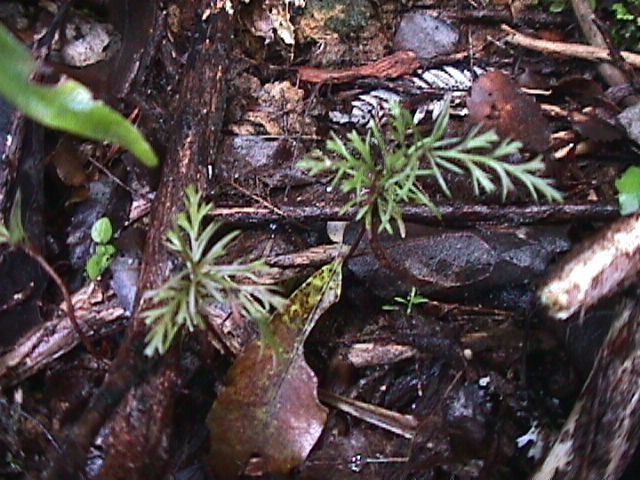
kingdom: Plantae
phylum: Tracheophyta
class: Pinopsida
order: Pinales
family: Phyllocladaceae
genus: Phyllocladus
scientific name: Phyllocladus trichomanoides
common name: Celery pine
